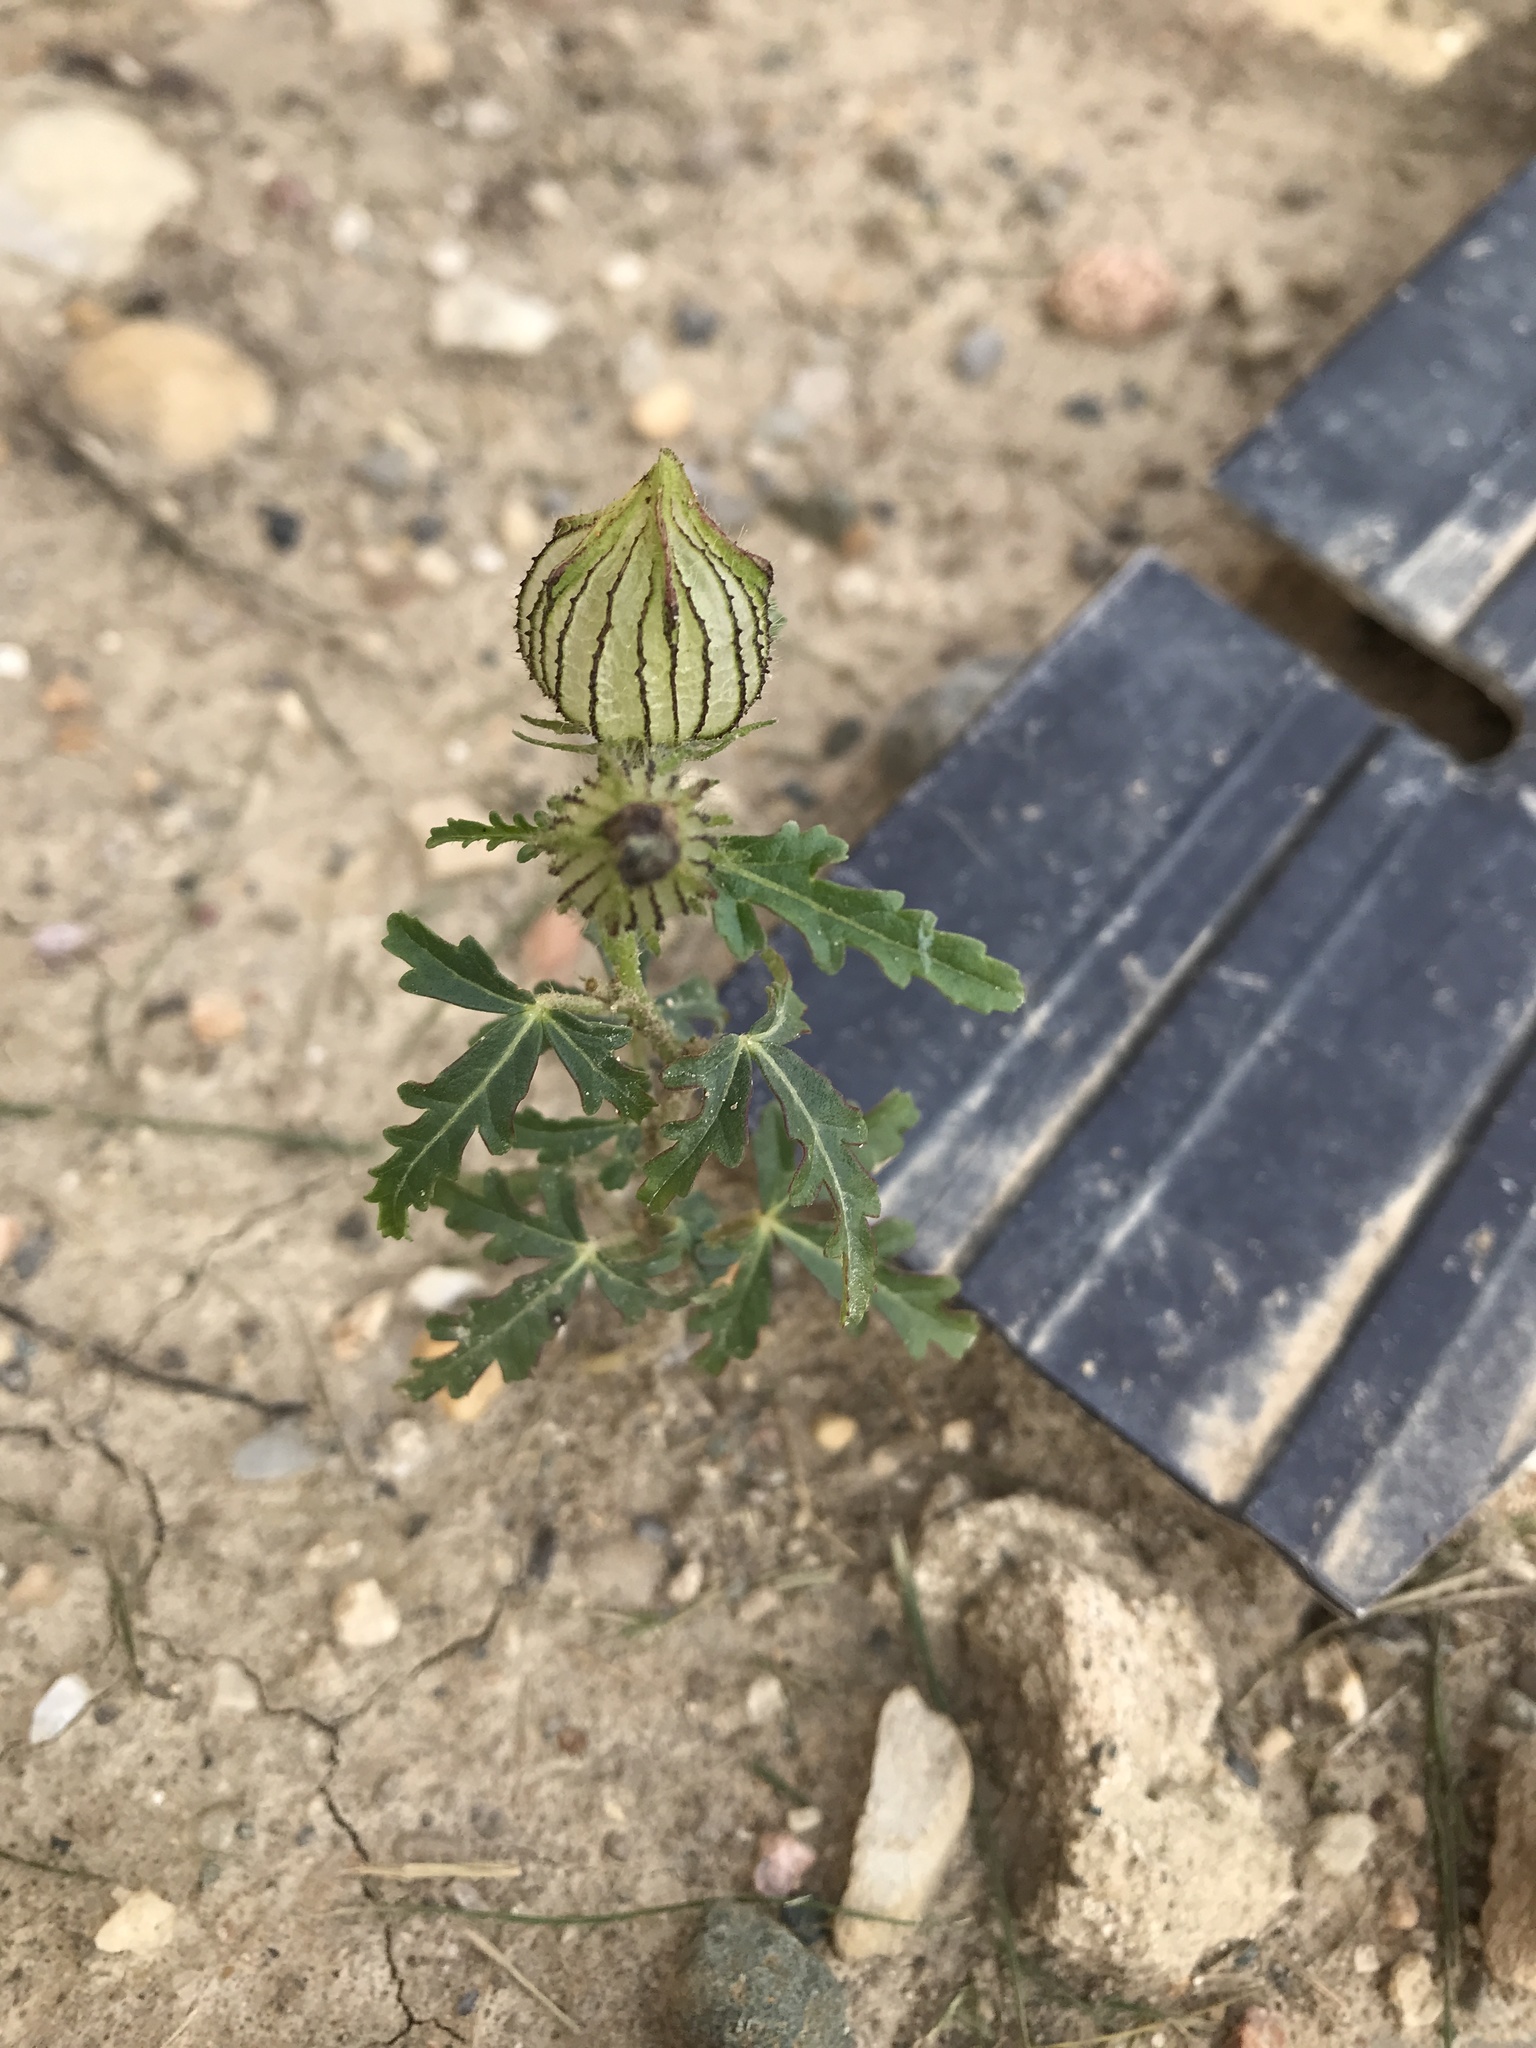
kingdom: Plantae
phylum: Tracheophyta
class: Magnoliopsida
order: Malvales
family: Malvaceae
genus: Hibiscus
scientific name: Hibiscus trionum
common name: Bladder ketmia
